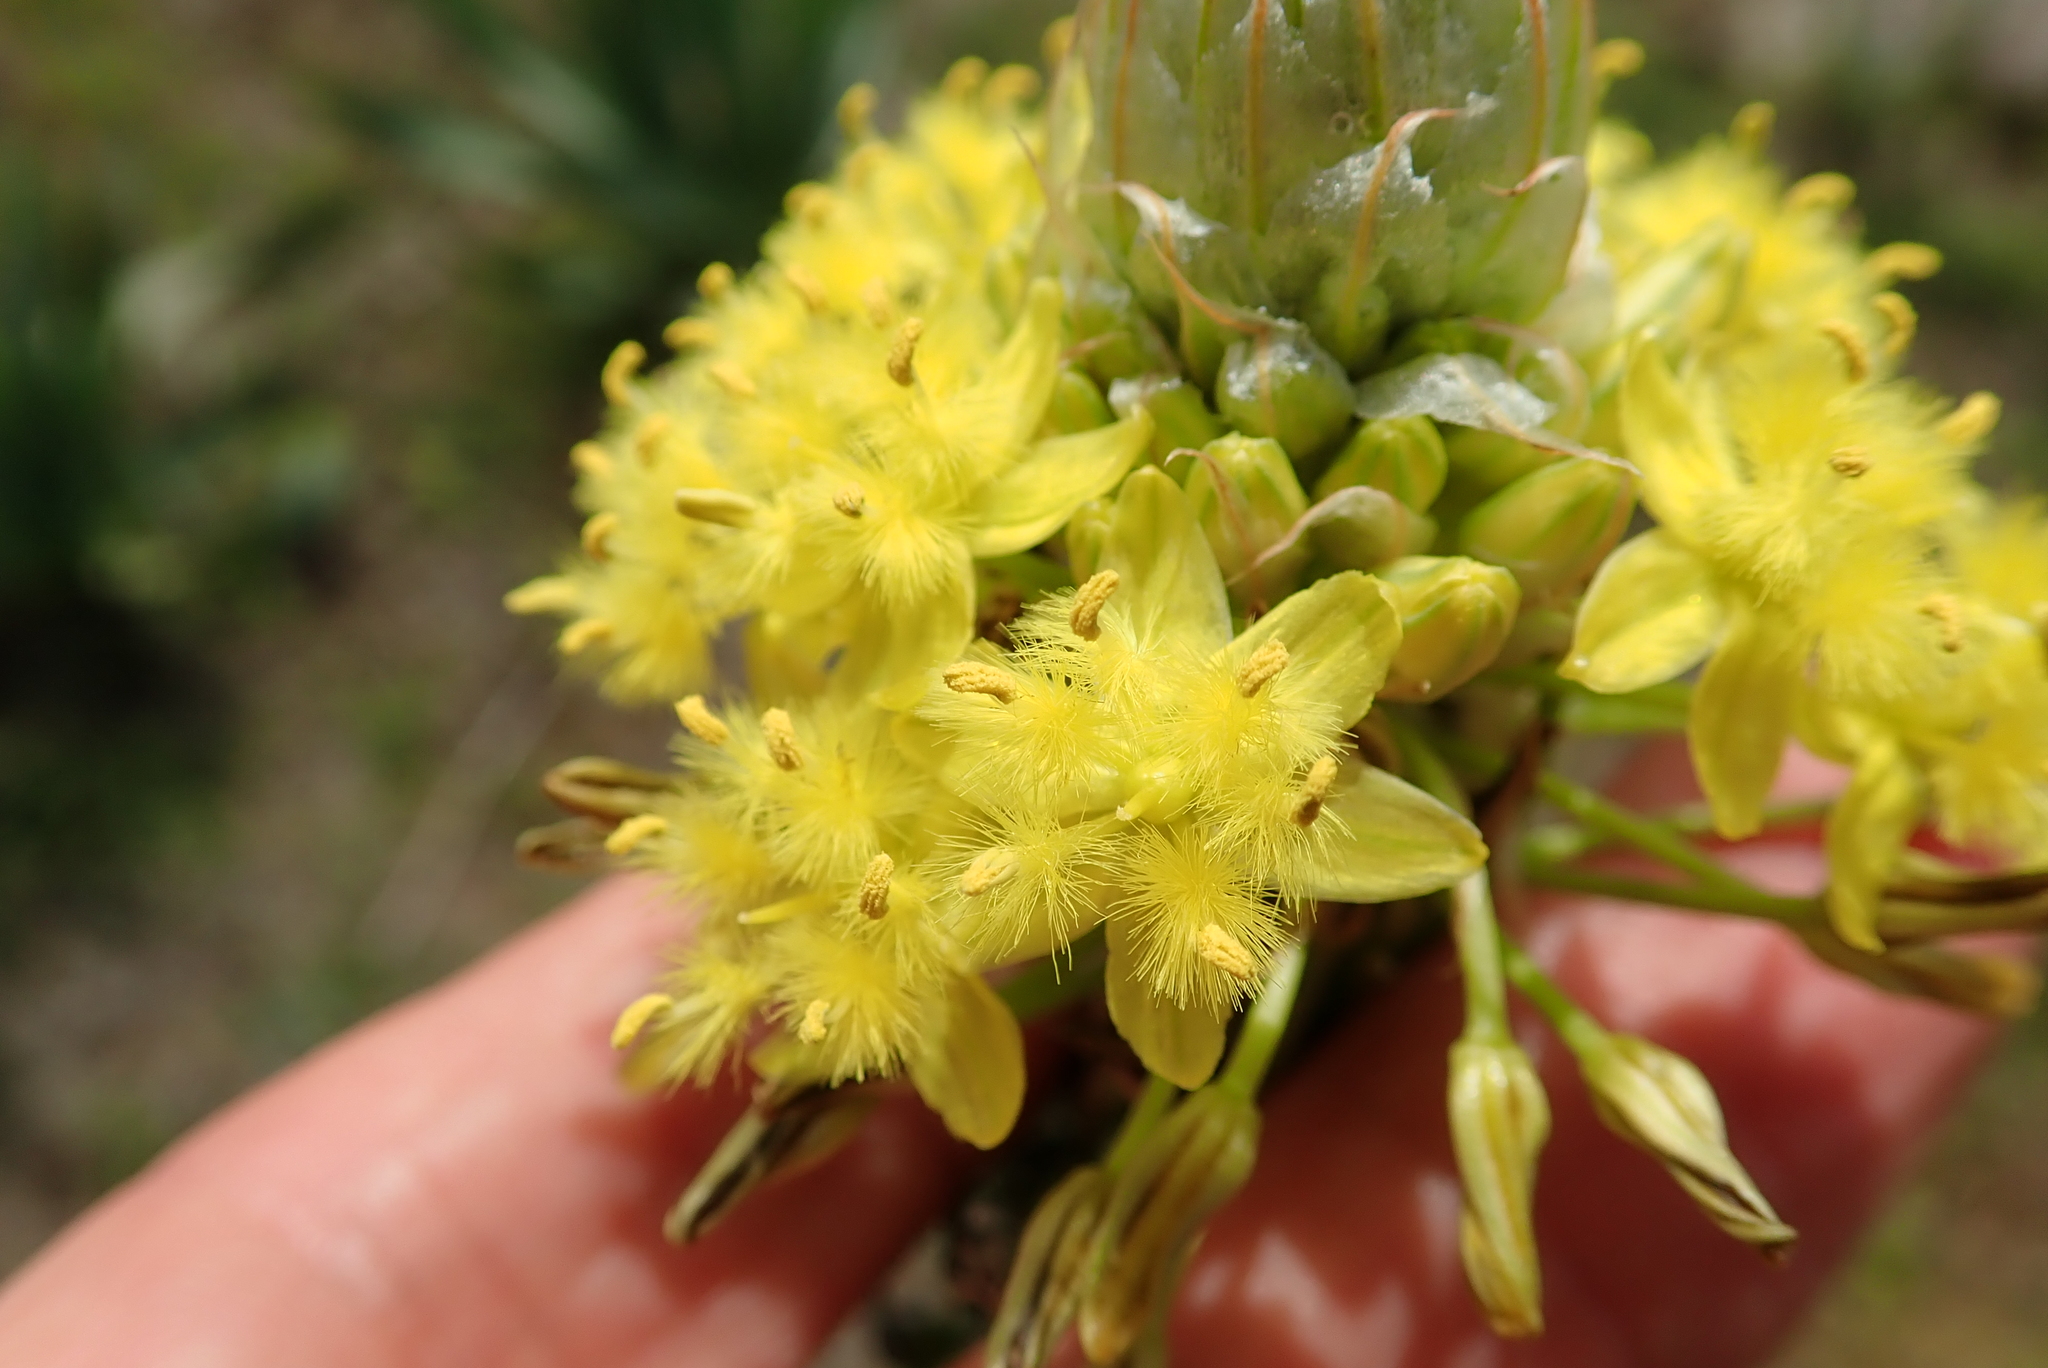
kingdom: Plantae
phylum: Tracheophyta
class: Liliopsida
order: Asparagales
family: Asphodelaceae
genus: Bulbine
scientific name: Bulbine narcissifolia
